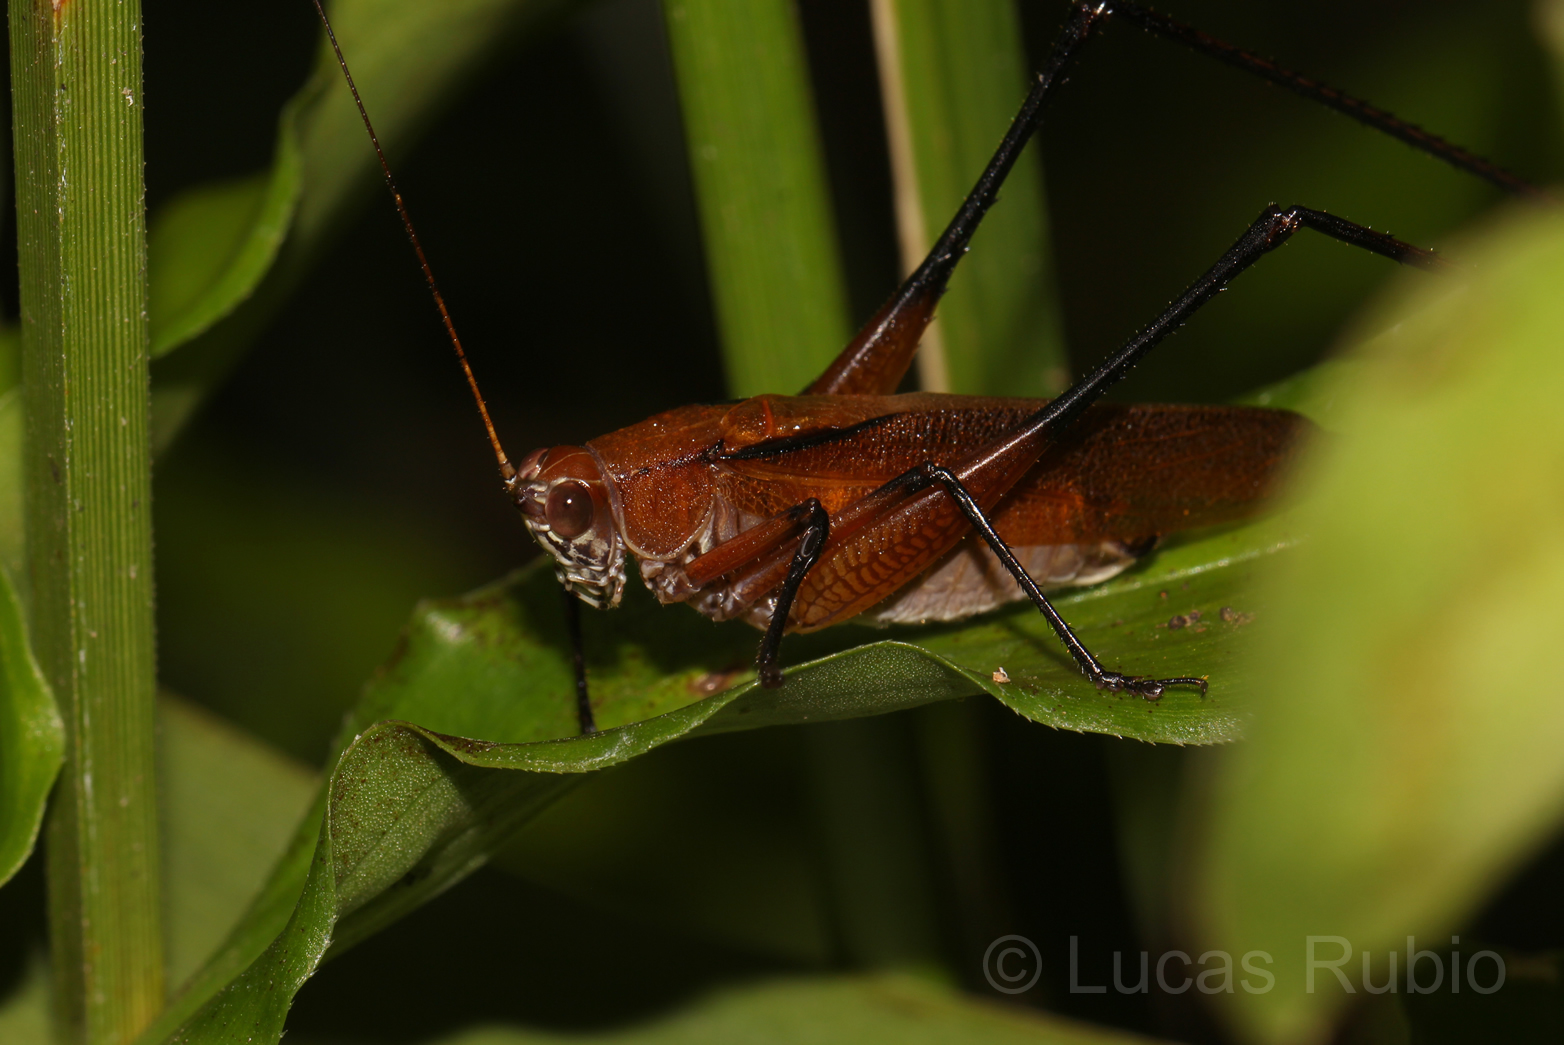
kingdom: Animalia
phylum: Arthropoda
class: Insecta
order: Orthoptera
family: Tettigoniidae
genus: Theudoria
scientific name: Theudoria melanocnemis
